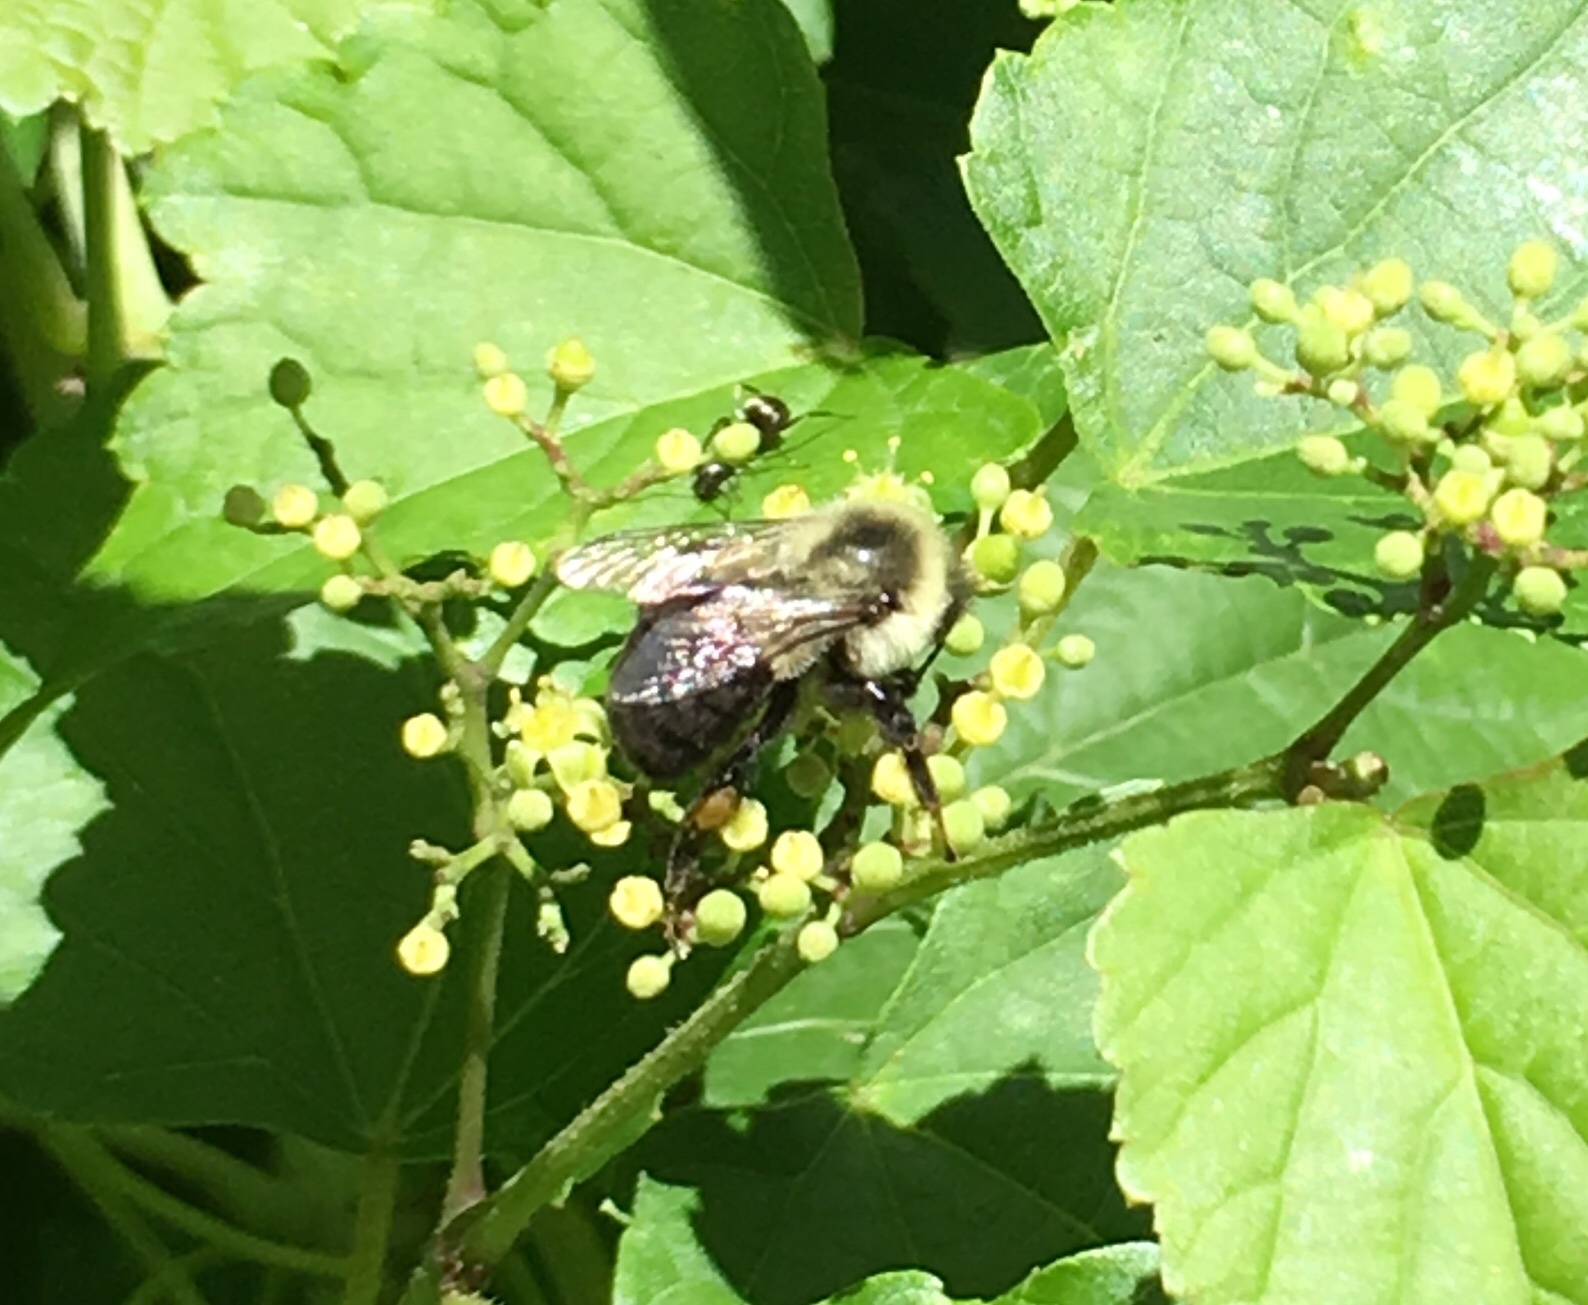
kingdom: Animalia
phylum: Arthropoda
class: Insecta
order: Hymenoptera
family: Apidae
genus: Bombus
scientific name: Bombus impatiens
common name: Common eastern bumble bee
